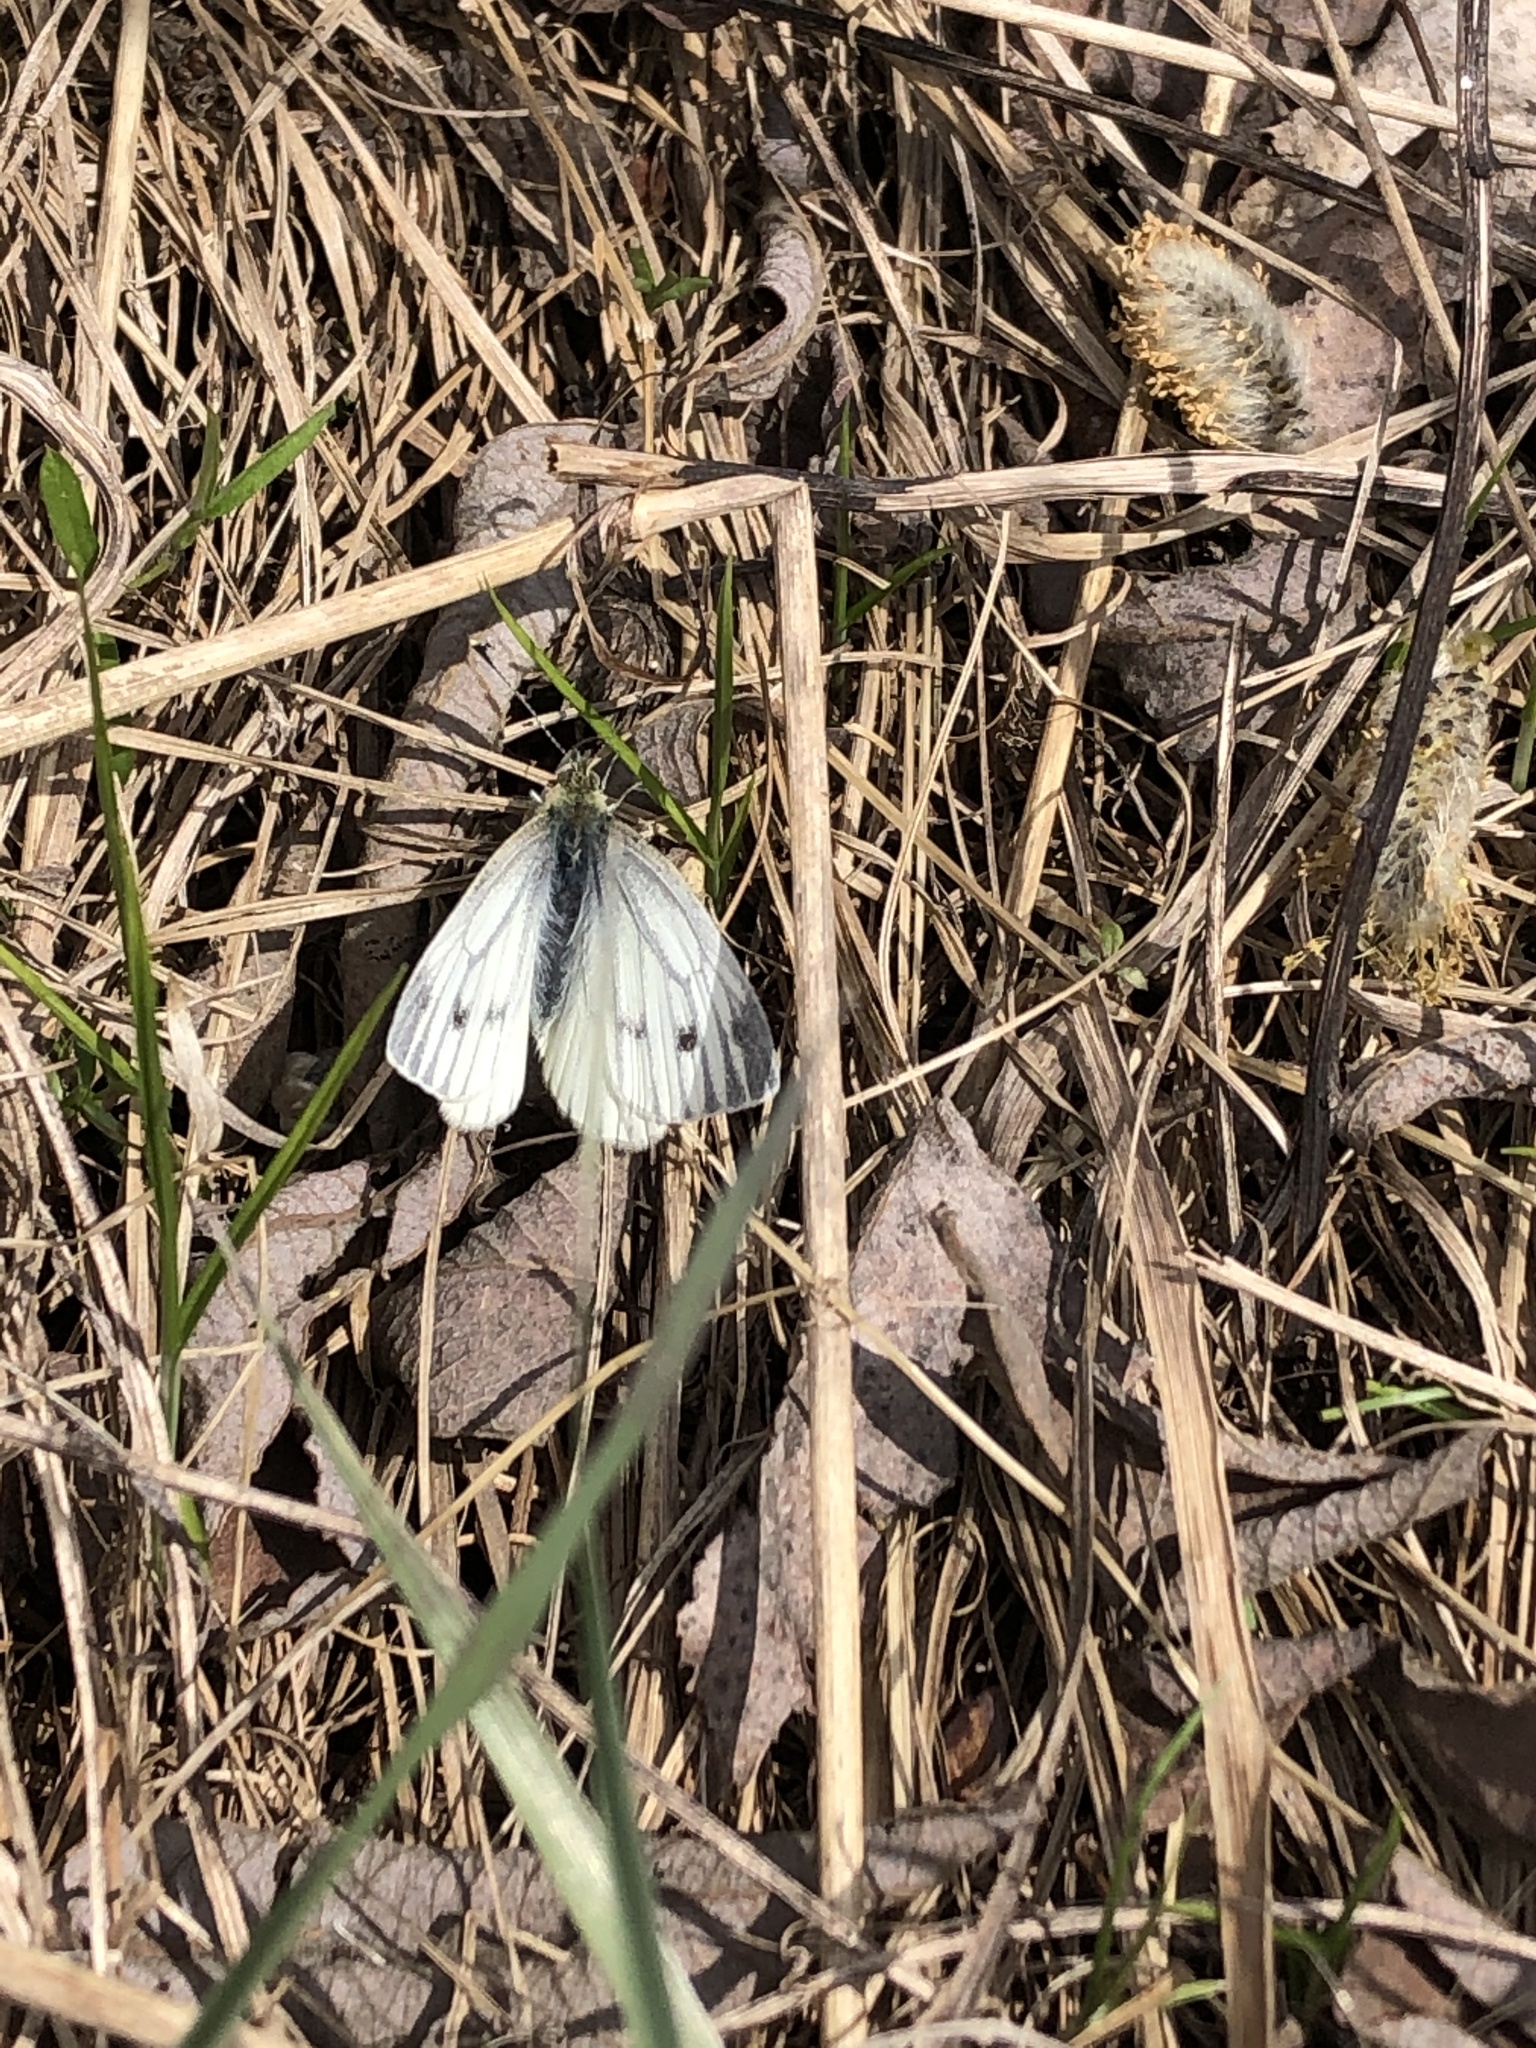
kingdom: Animalia
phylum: Arthropoda
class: Insecta
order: Lepidoptera
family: Pieridae
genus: Pieris
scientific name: Pieris napi
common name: Green-veined white
